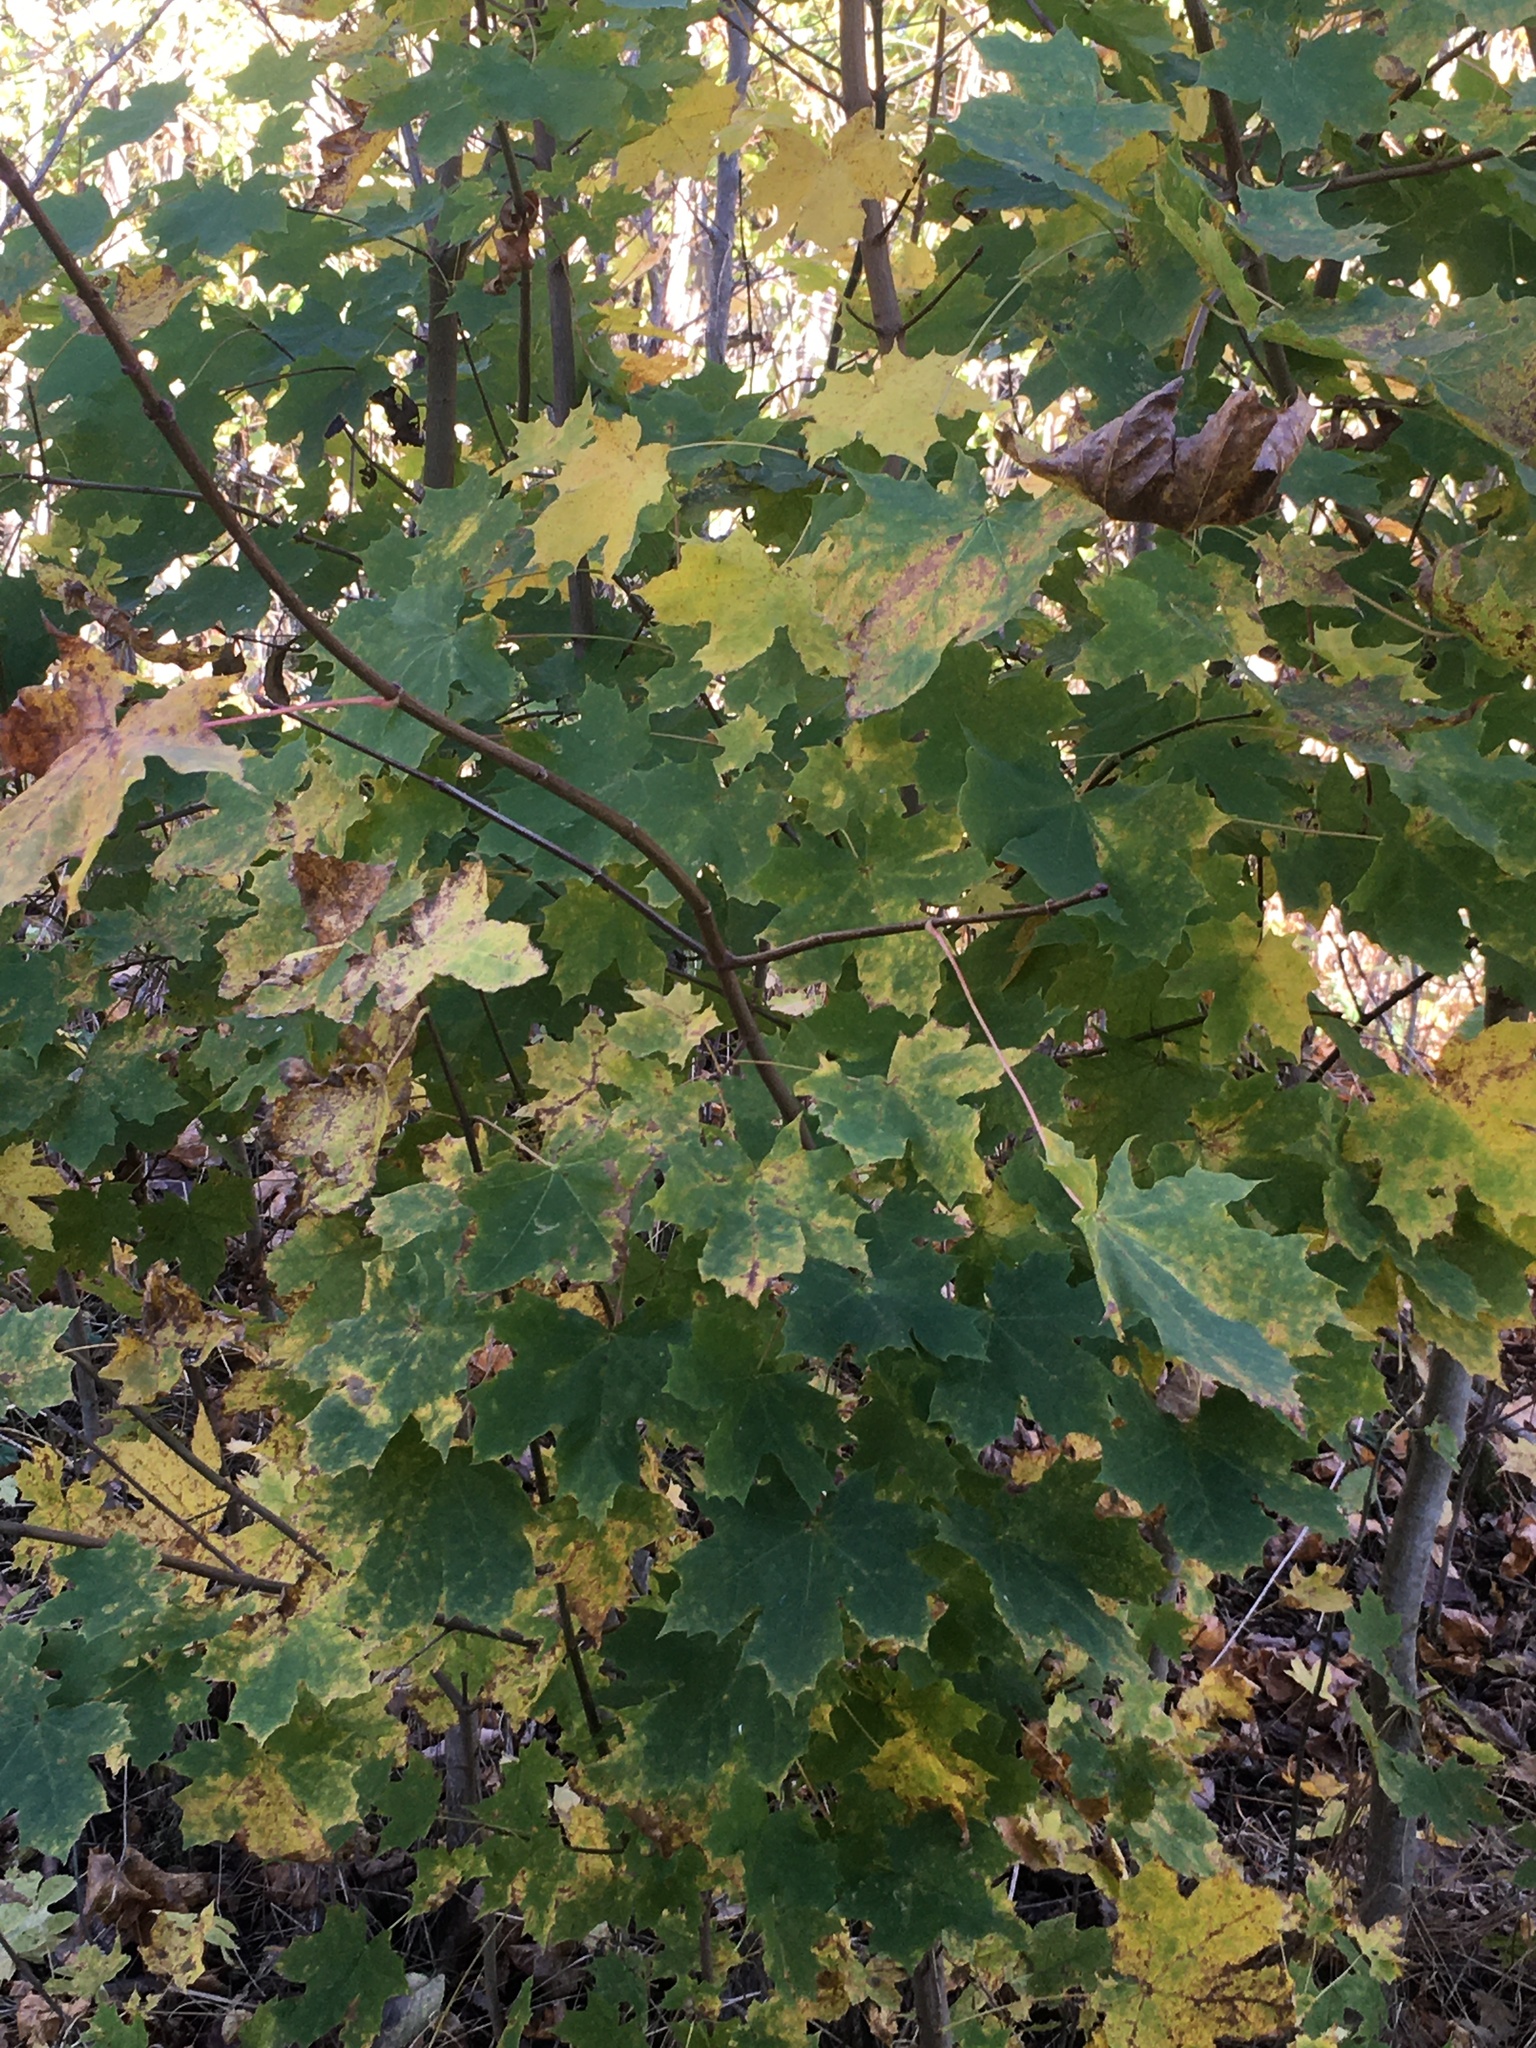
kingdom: Plantae
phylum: Tracheophyta
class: Magnoliopsida
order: Sapindales
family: Sapindaceae
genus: Acer
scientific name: Acer platanoides
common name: Norway maple
